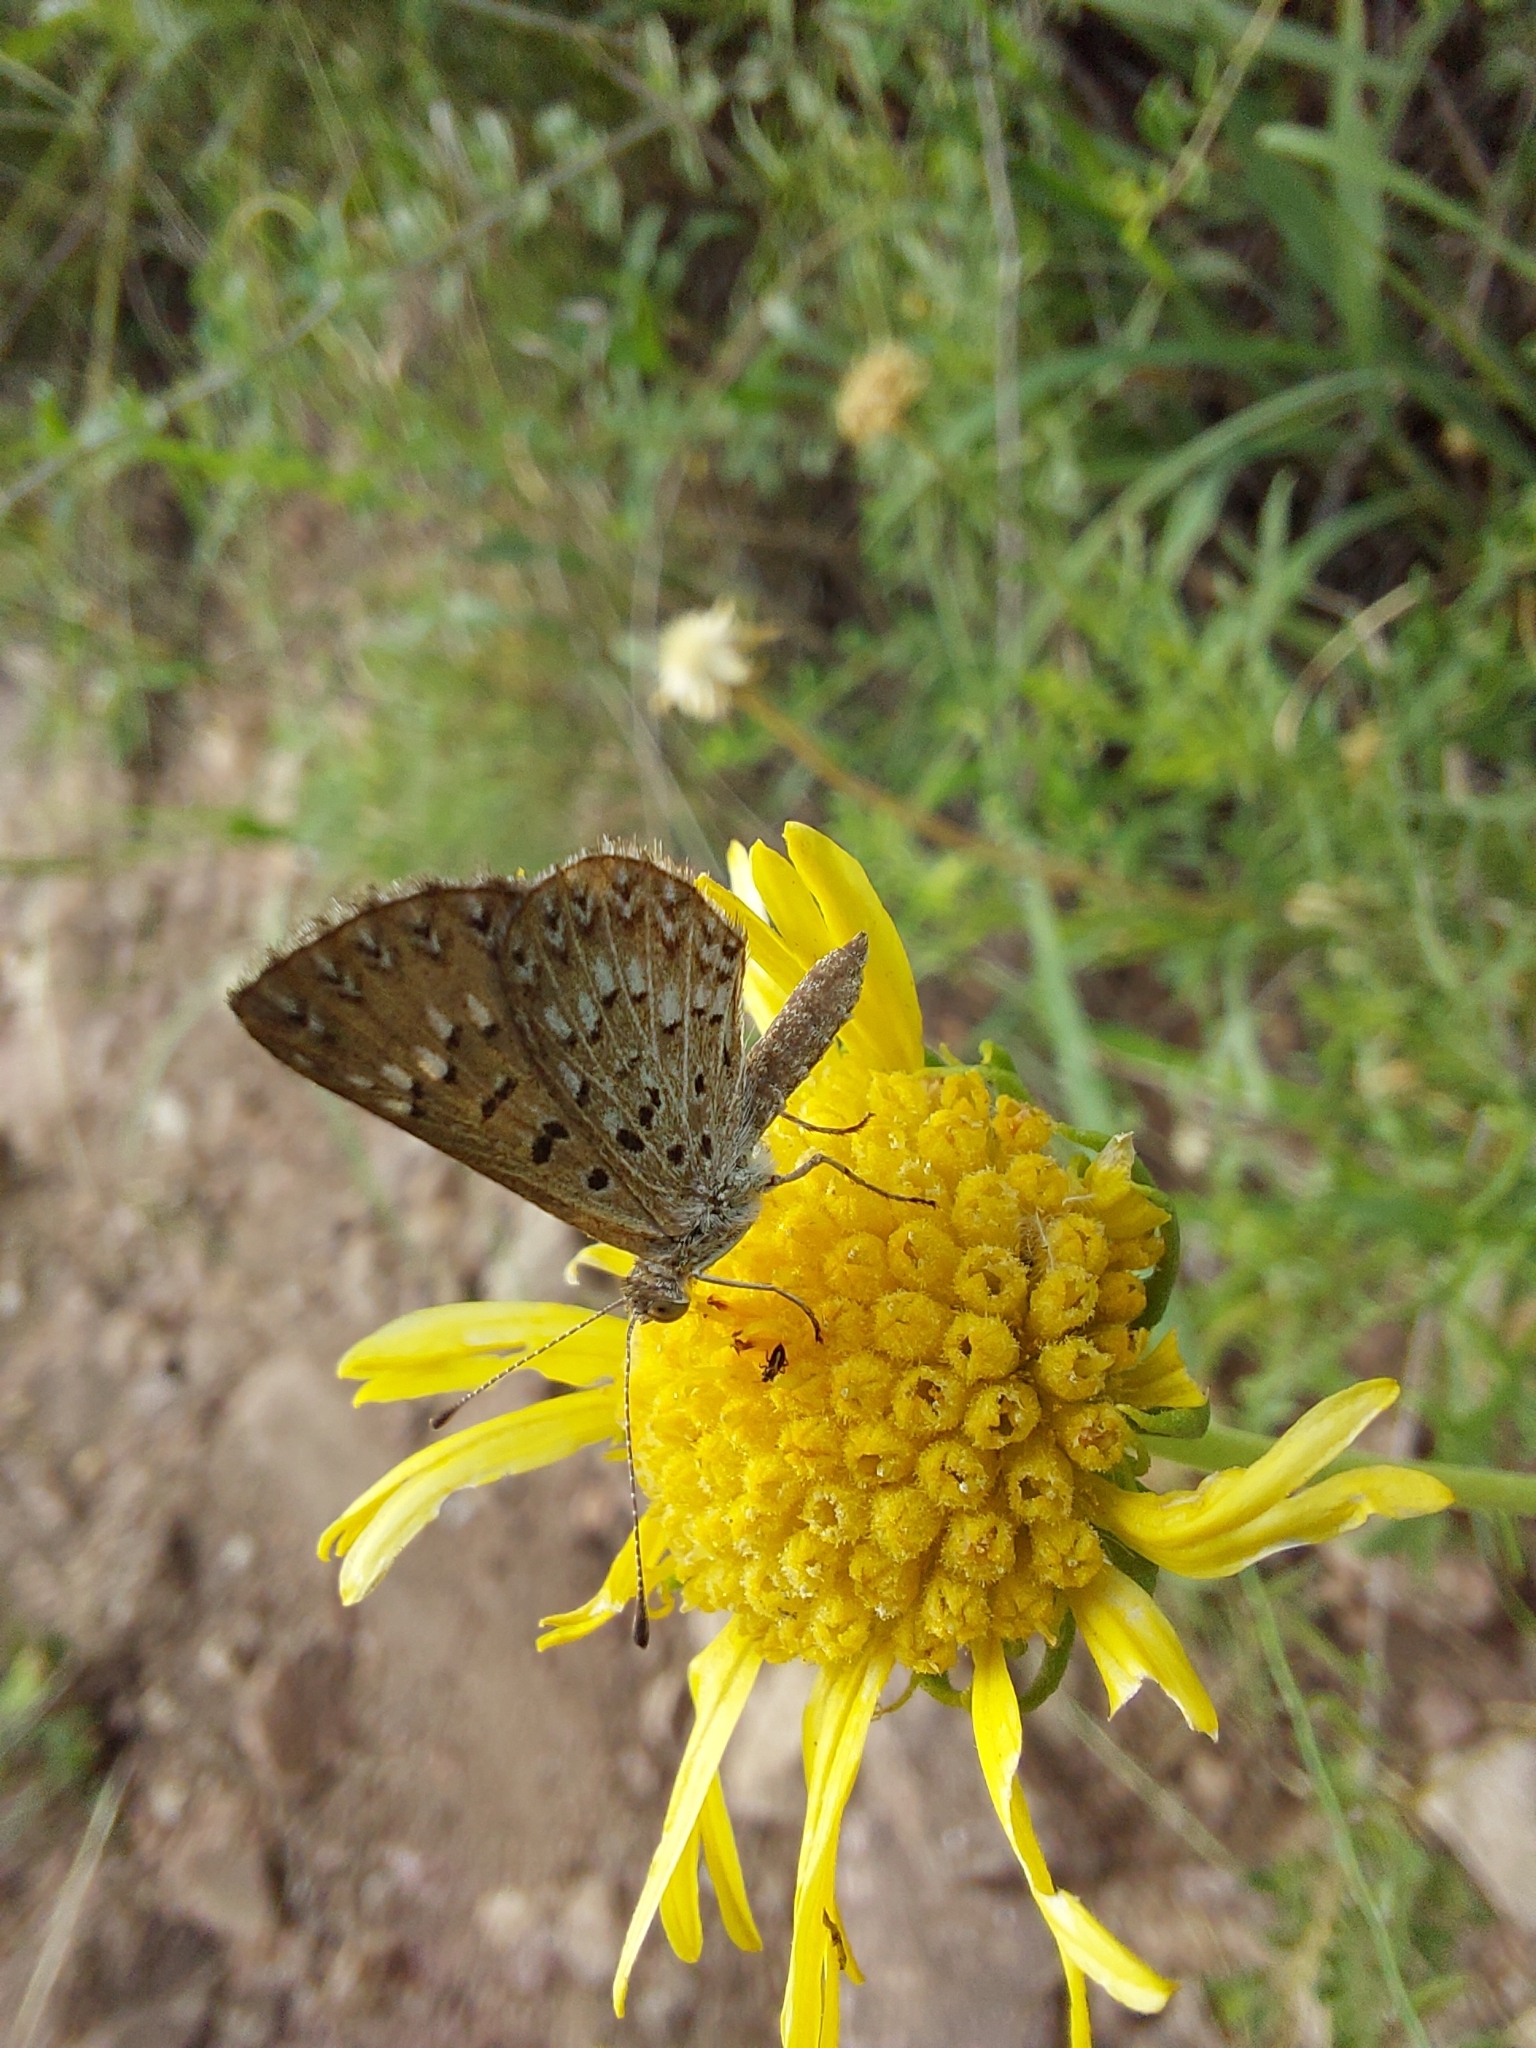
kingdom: Animalia
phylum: Arthropoda
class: Insecta
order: Lepidoptera
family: Riodinidae
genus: Zabuella
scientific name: Zabuella tenellus
